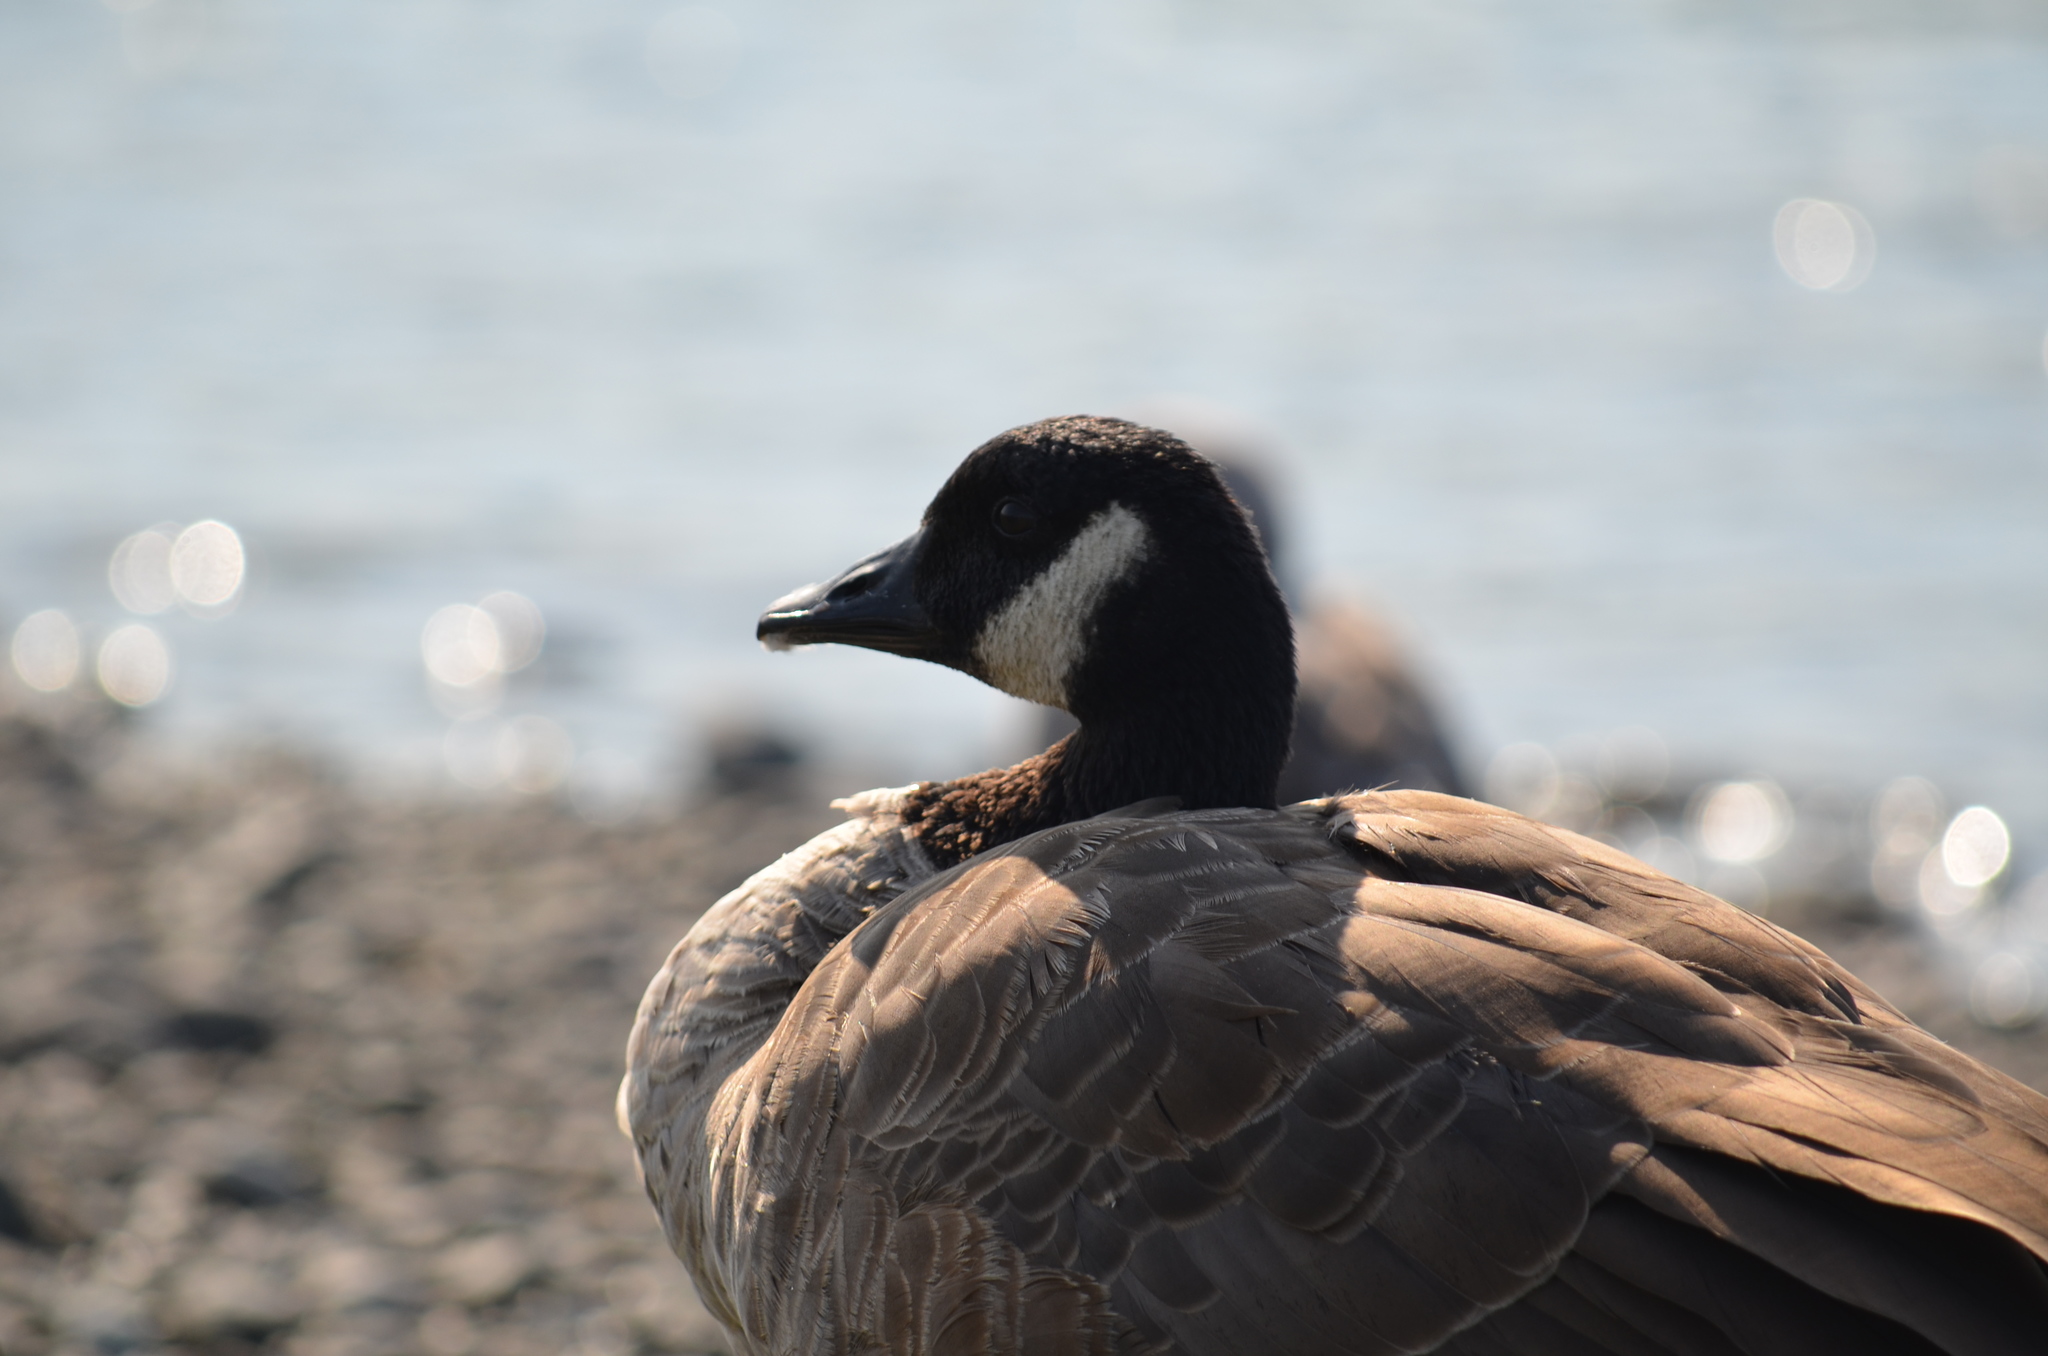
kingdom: Animalia
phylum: Chordata
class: Aves
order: Anseriformes
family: Anatidae
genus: Branta
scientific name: Branta canadensis
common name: Canada goose
